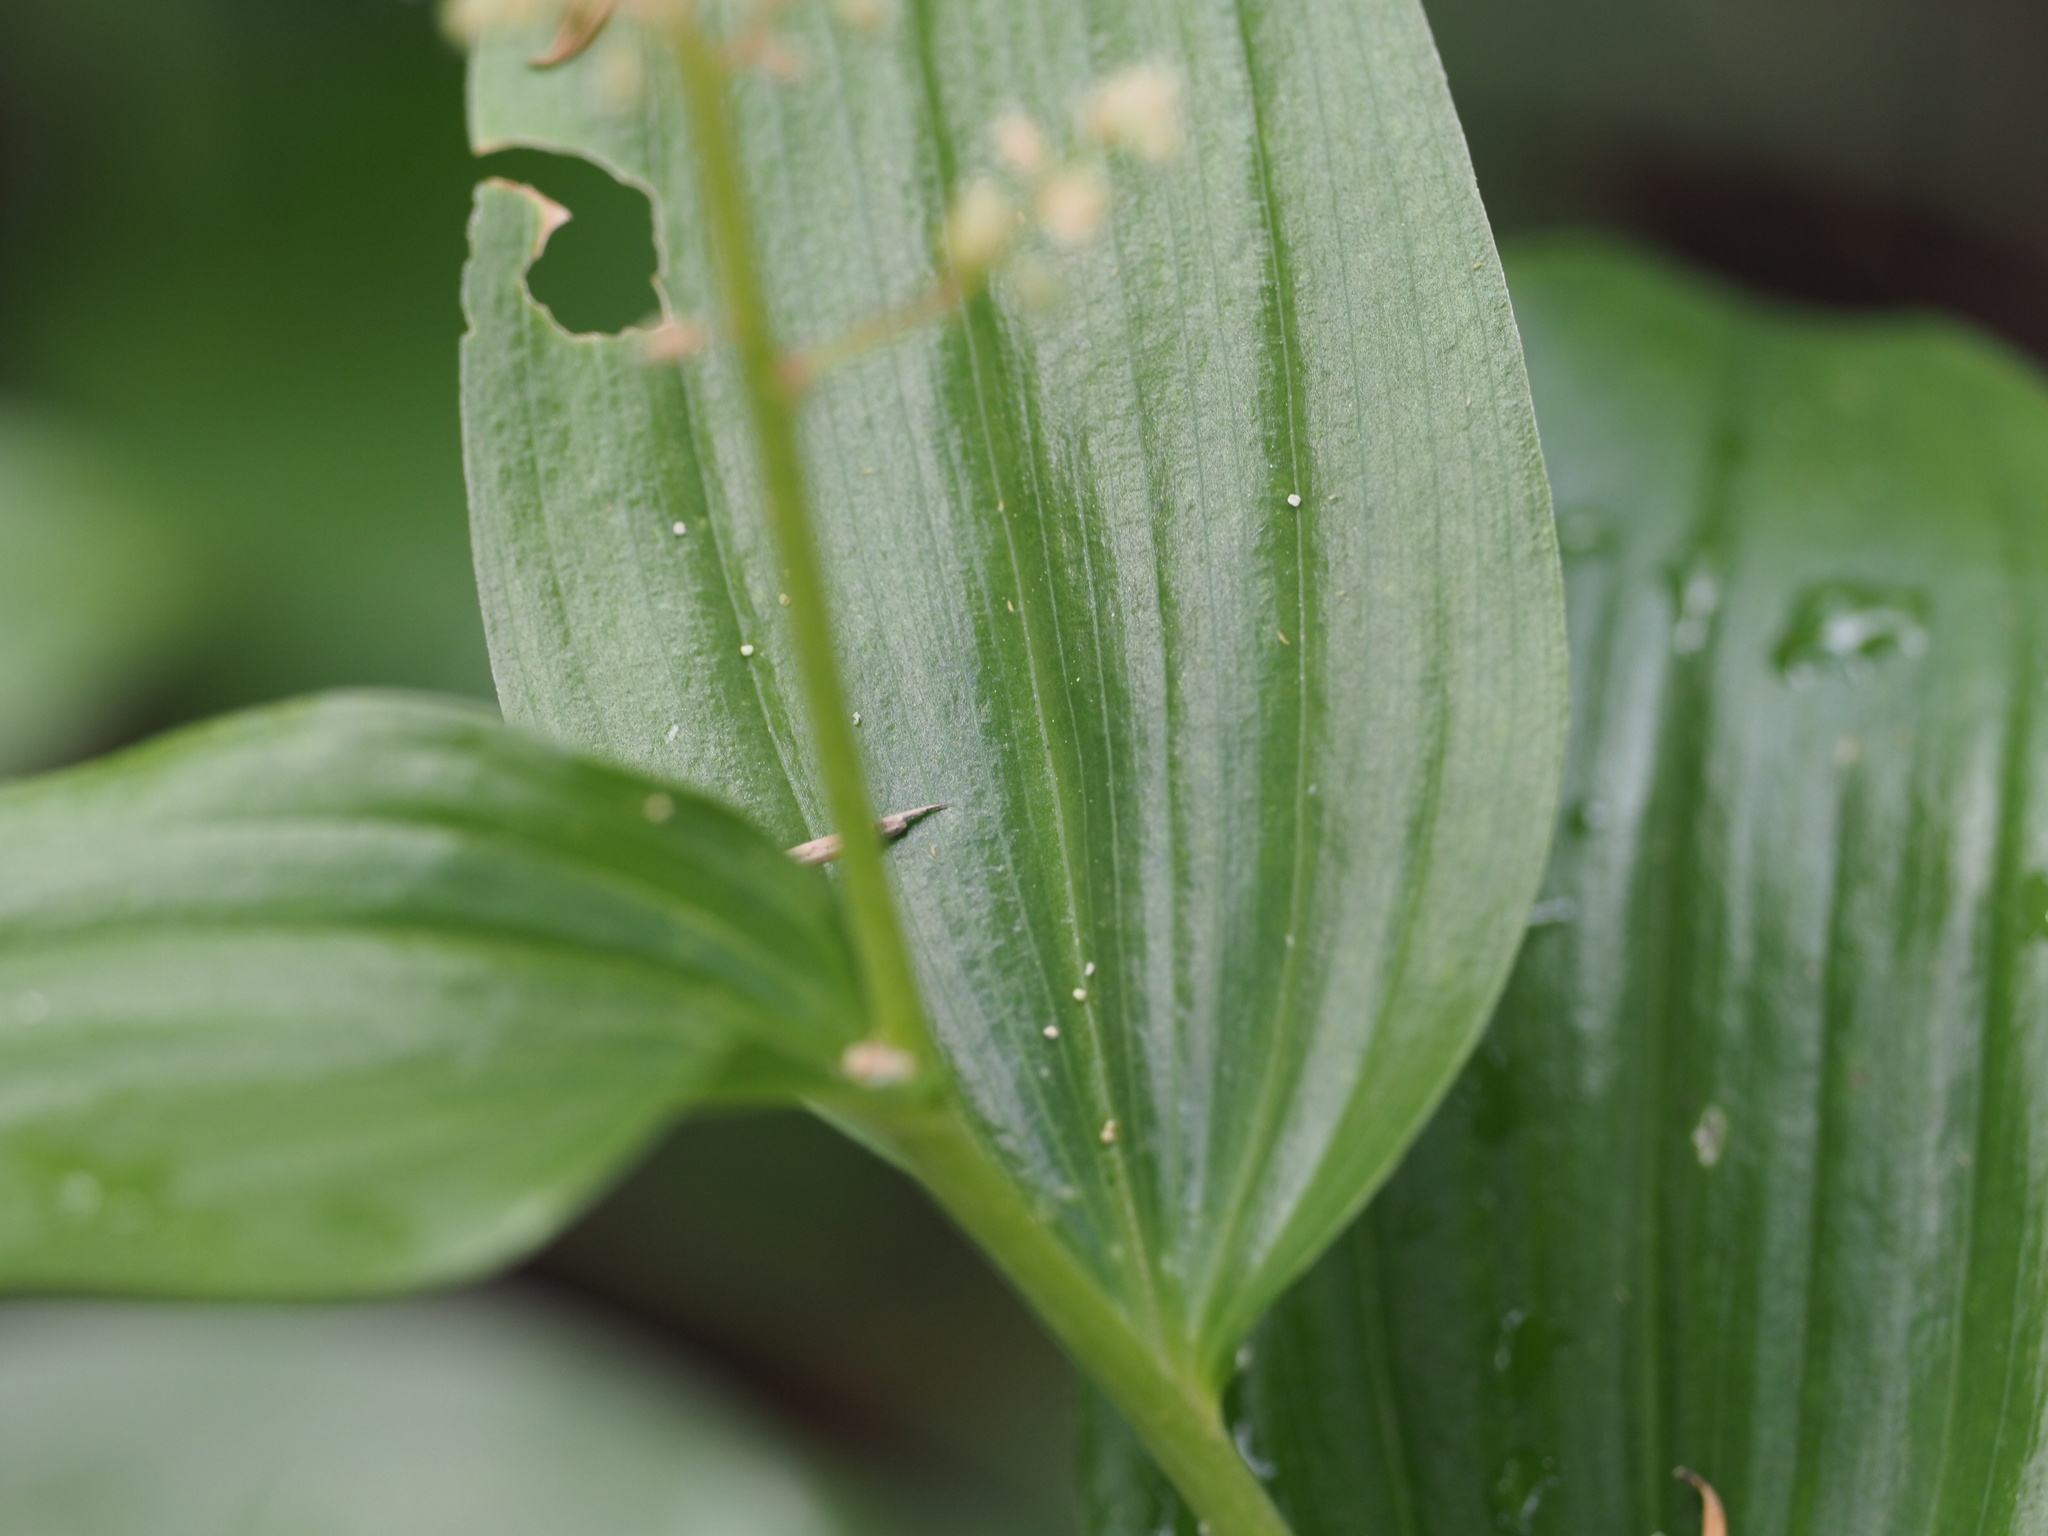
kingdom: Plantae
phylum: Tracheophyta
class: Liliopsida
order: Asparagales
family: Asparagaceae
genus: Maianthemum
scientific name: Maianthemum racemosum
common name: False spikenard
